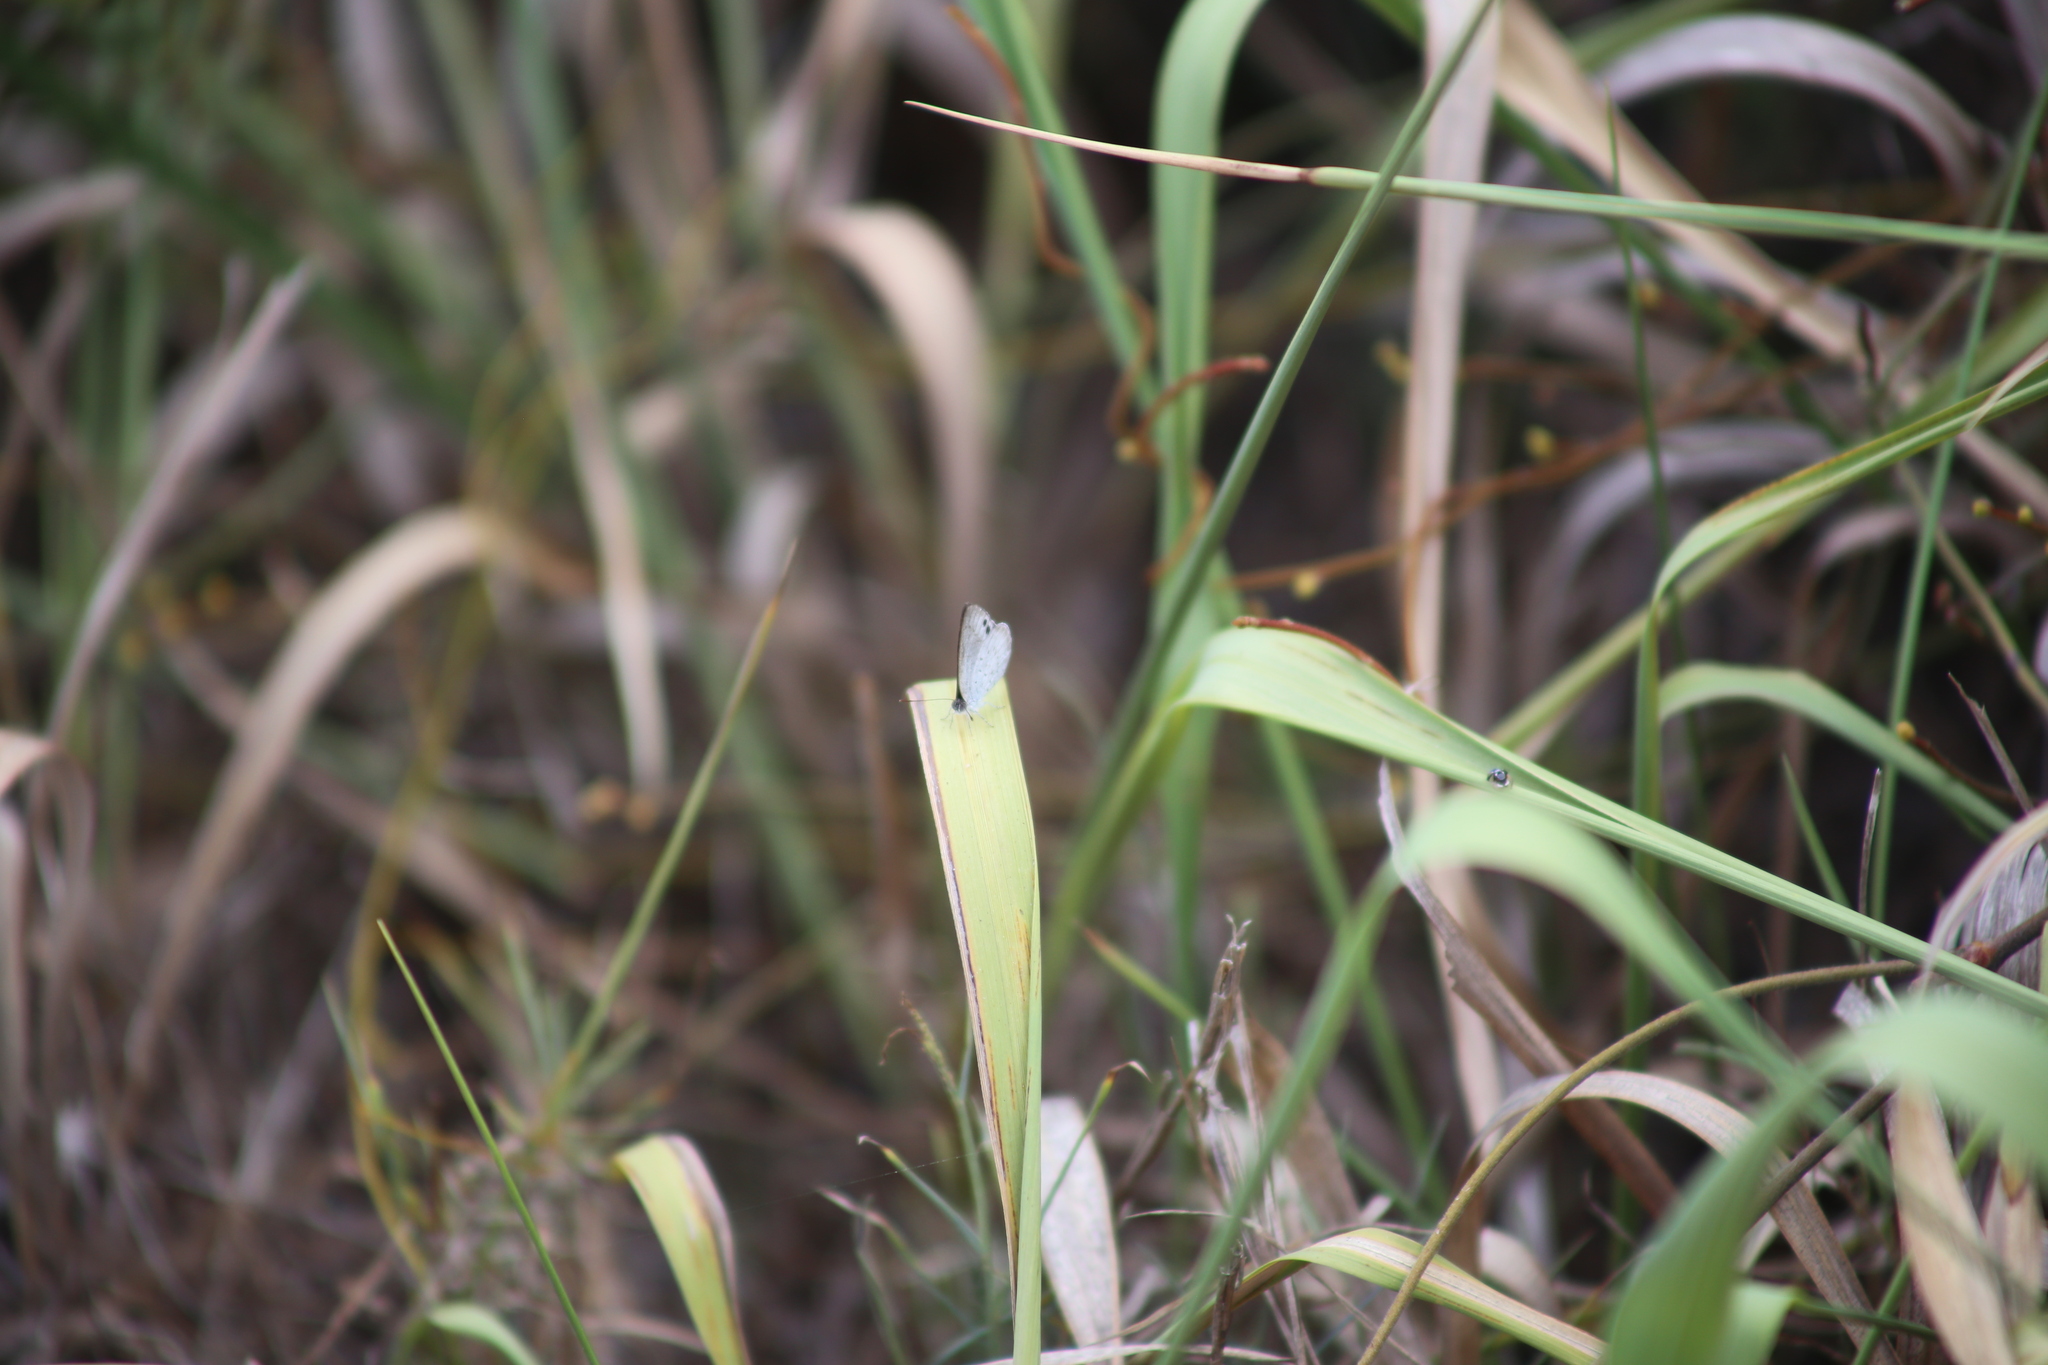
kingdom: Animalia
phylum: Arthropoda
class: Insecta
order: Lepidoptera
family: Lycaenidae
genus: Candalides
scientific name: Candalides
